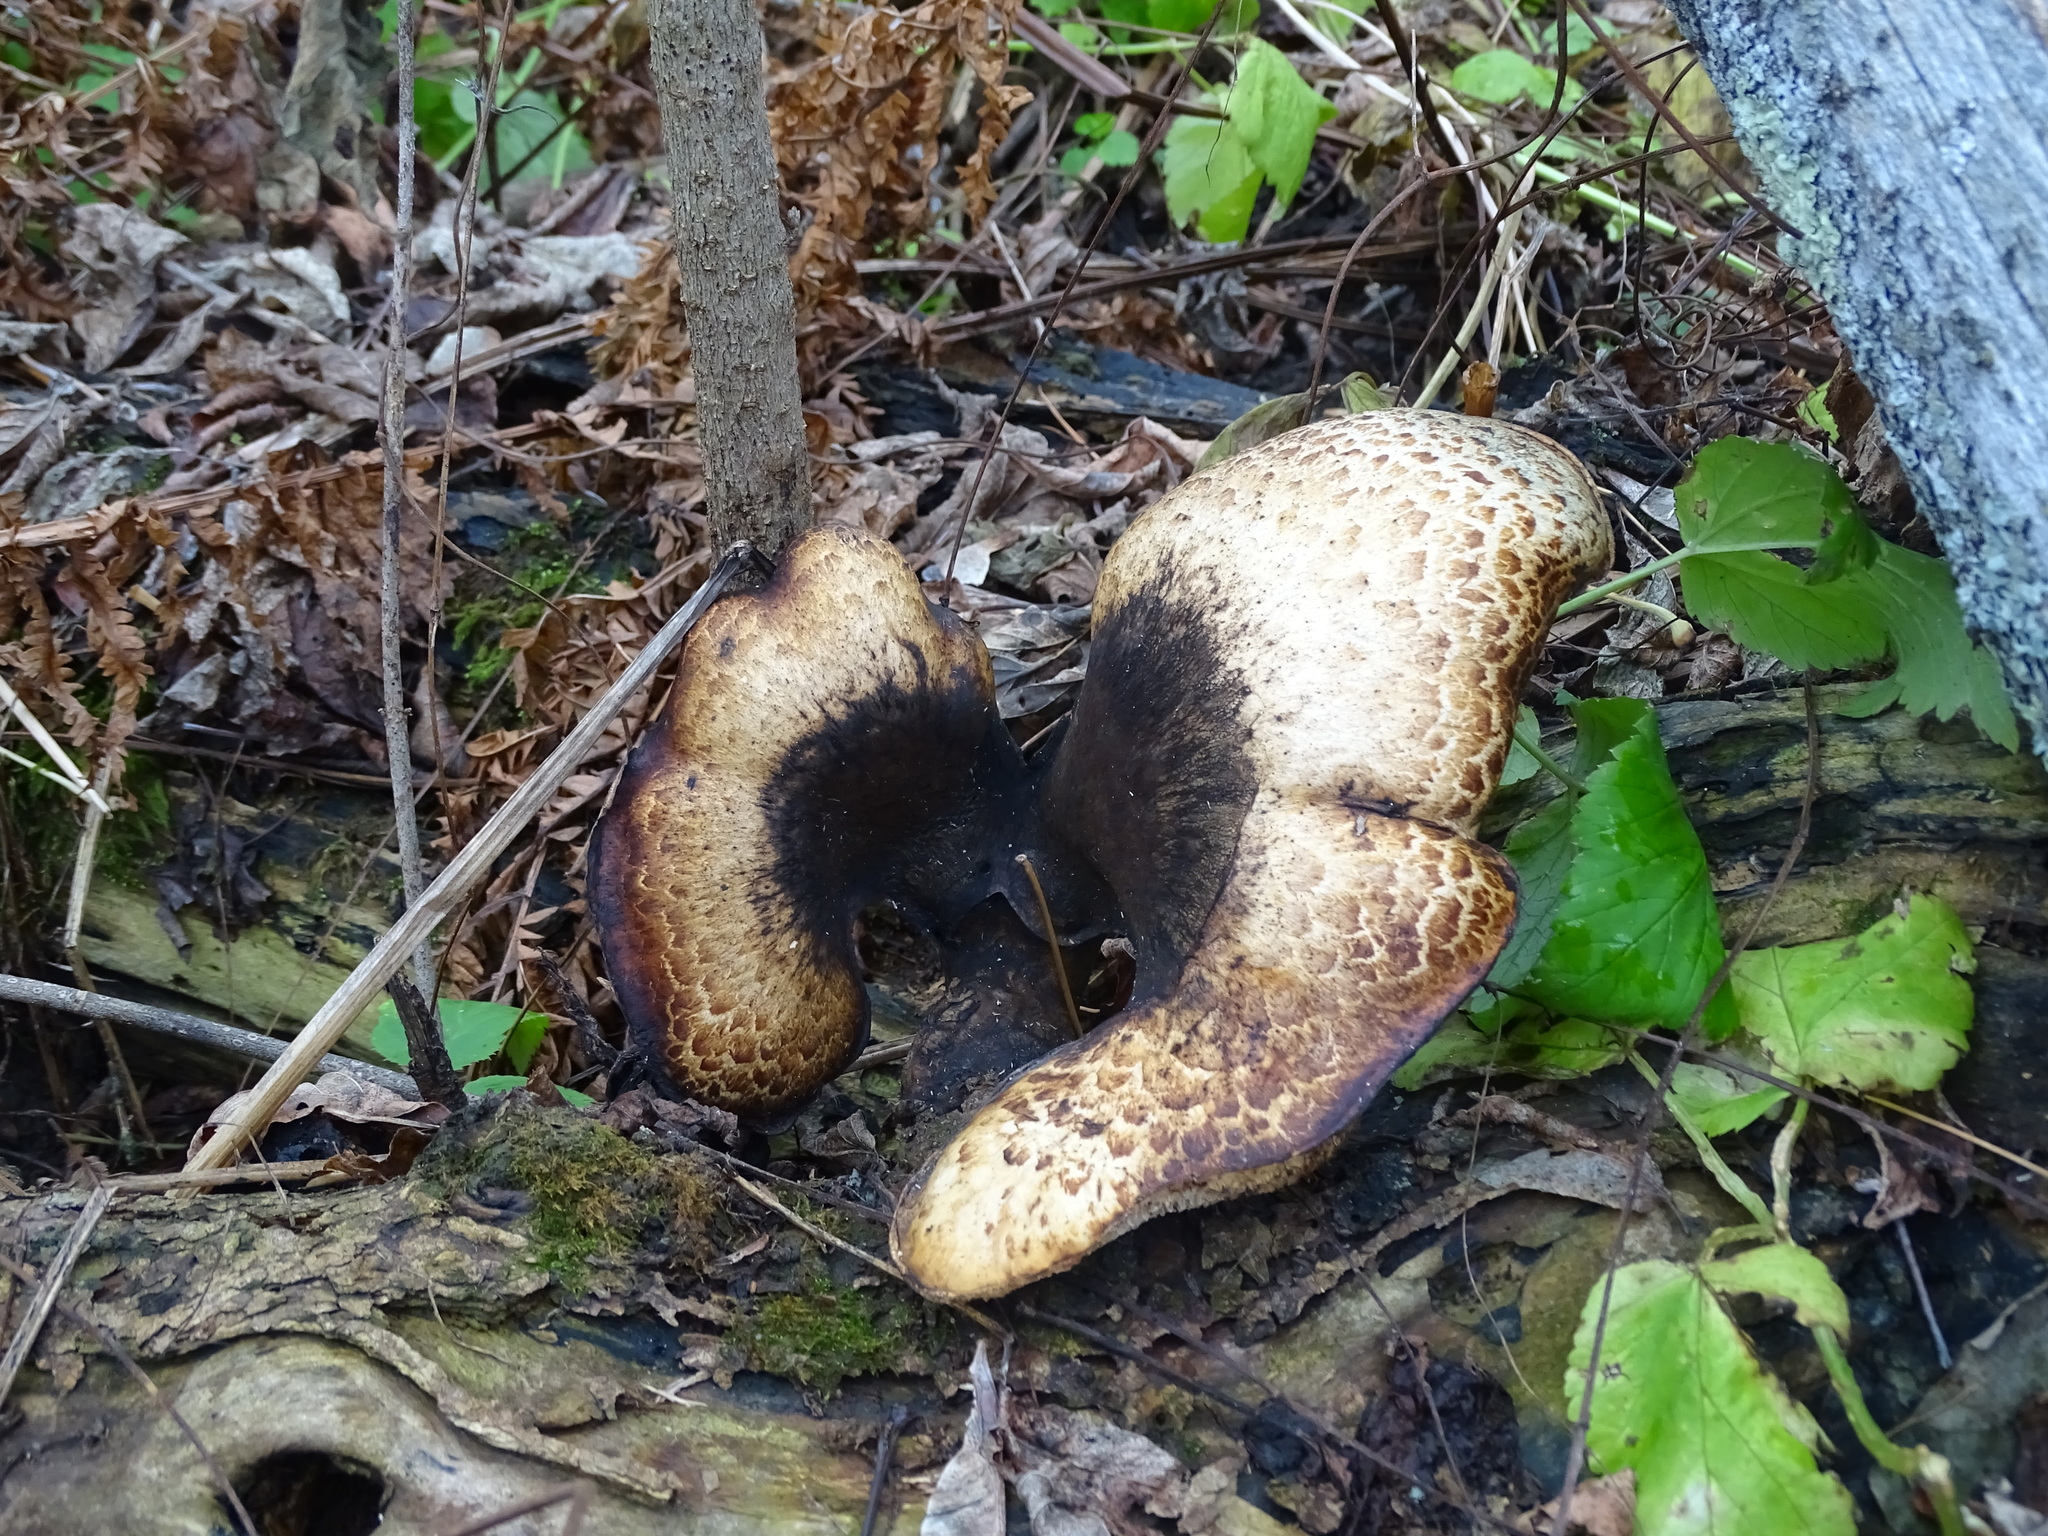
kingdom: Fungi
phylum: Basidiomycota
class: Agaricomycetes
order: Polyporales
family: Polyporaceae
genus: Cerioporus
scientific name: Cerioporus squamosus
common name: Dryad's saddle
